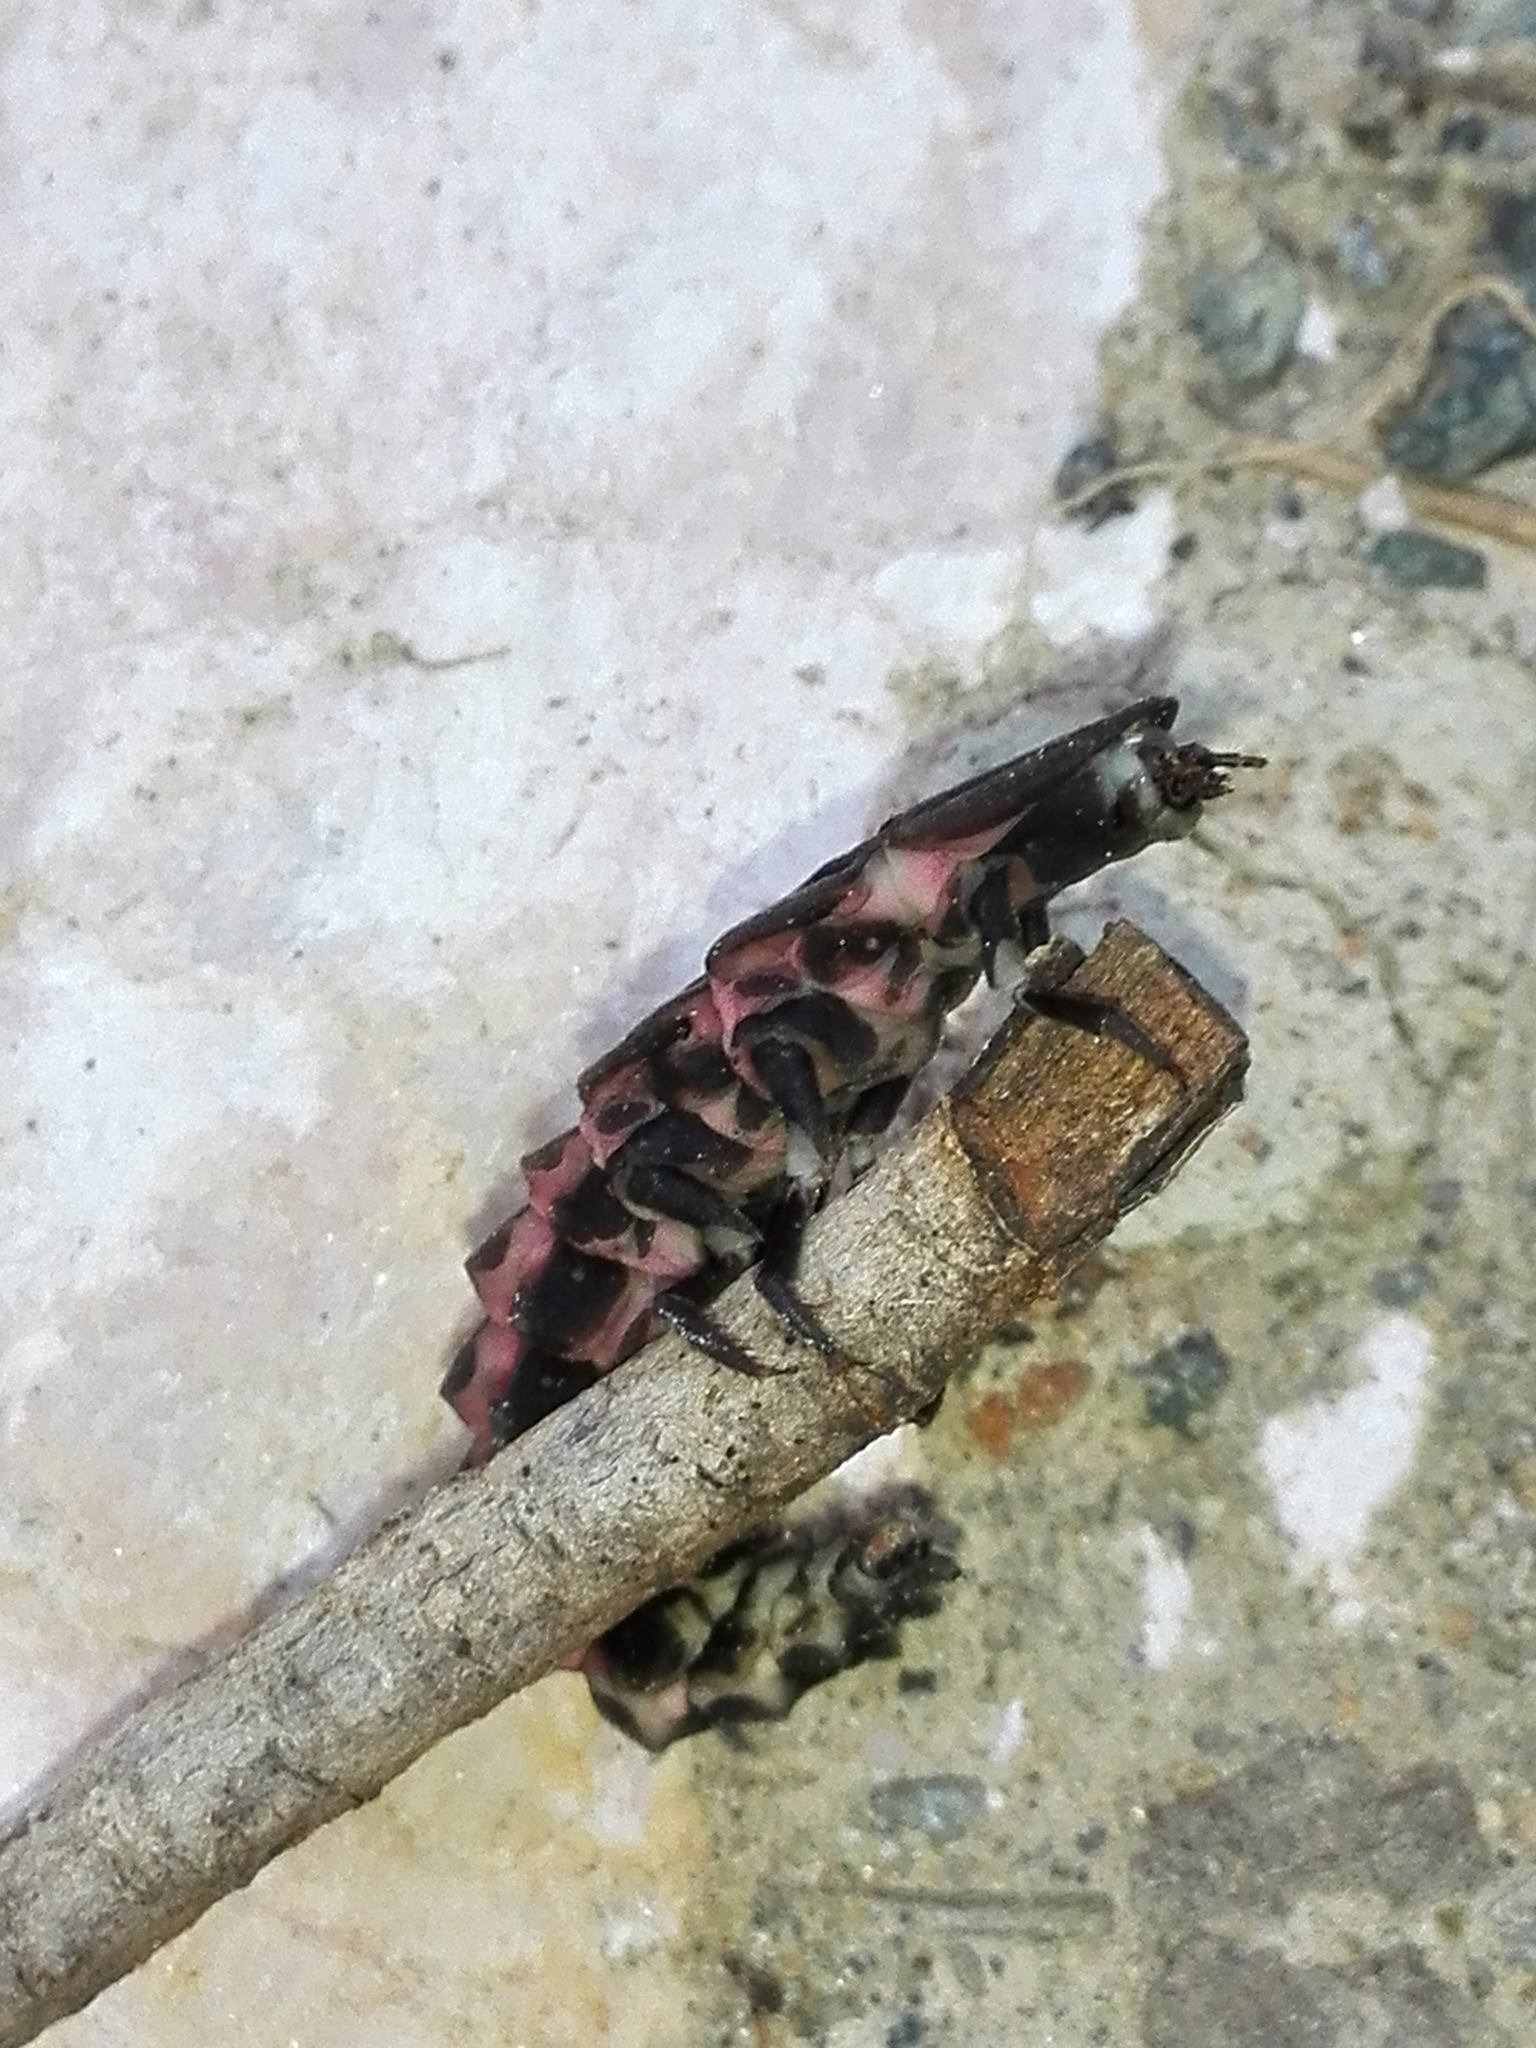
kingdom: Animalia
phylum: Arthropoda
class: Insecta
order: Coleoptera
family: Lampyridae
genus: Nyctophila
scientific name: Nyctophila reichii
